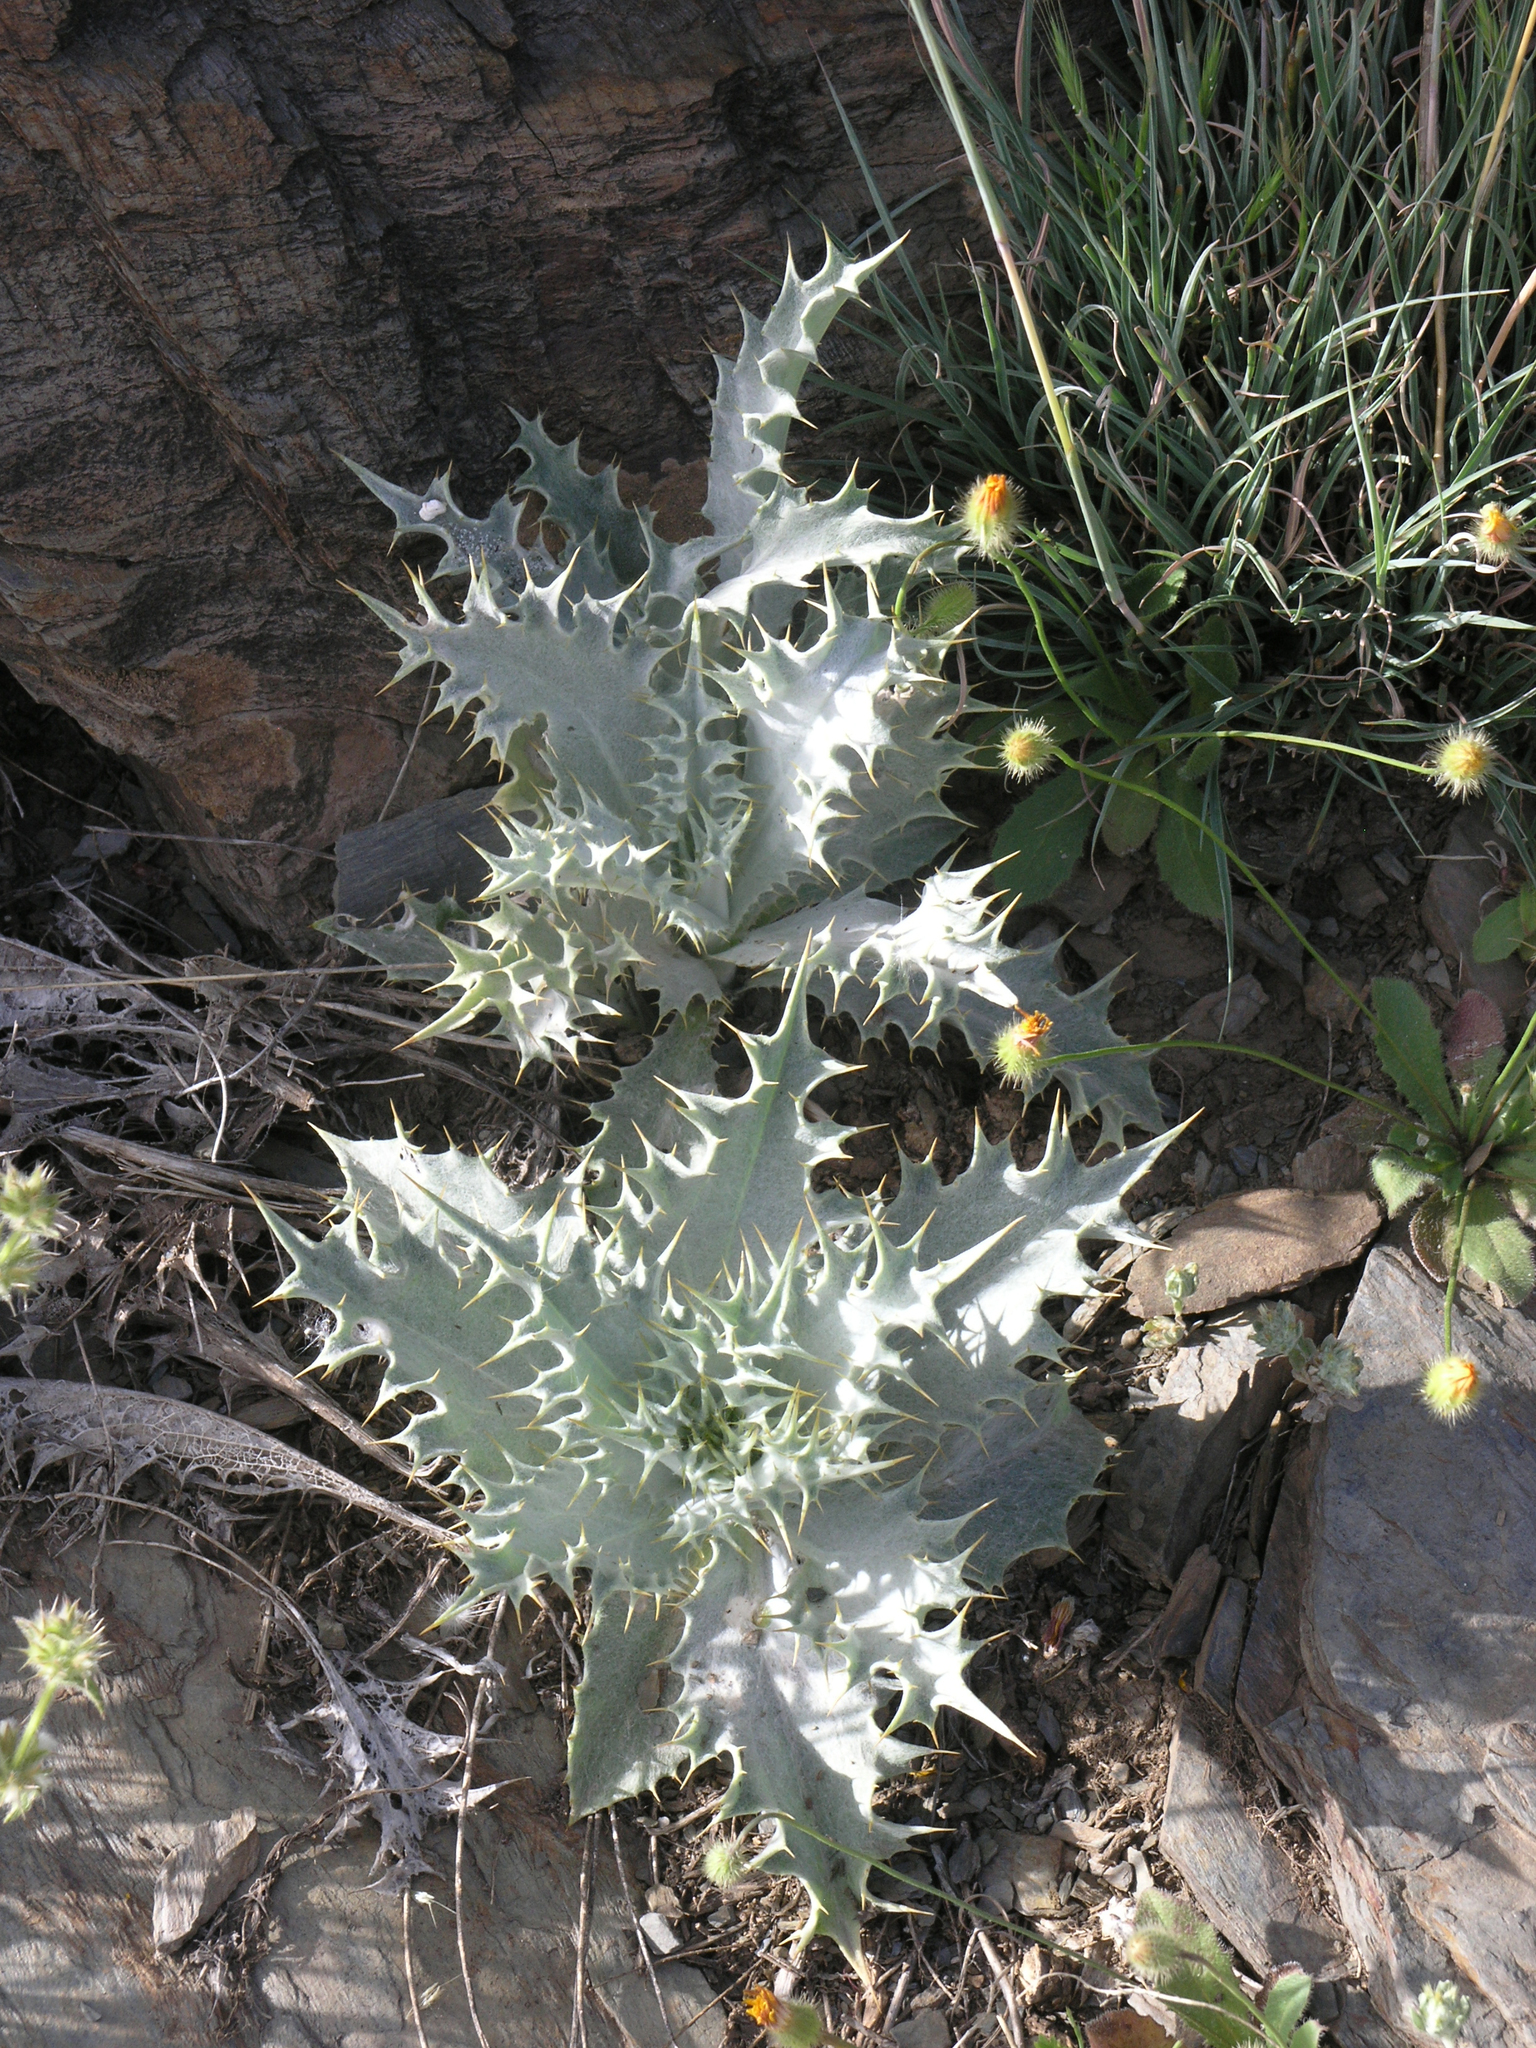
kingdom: Plantae
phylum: Tracheophyta
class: Magnoliopsida
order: Asterales
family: Asteraceae
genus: Chamaeleon
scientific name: Chamaeleon macrophyllus
